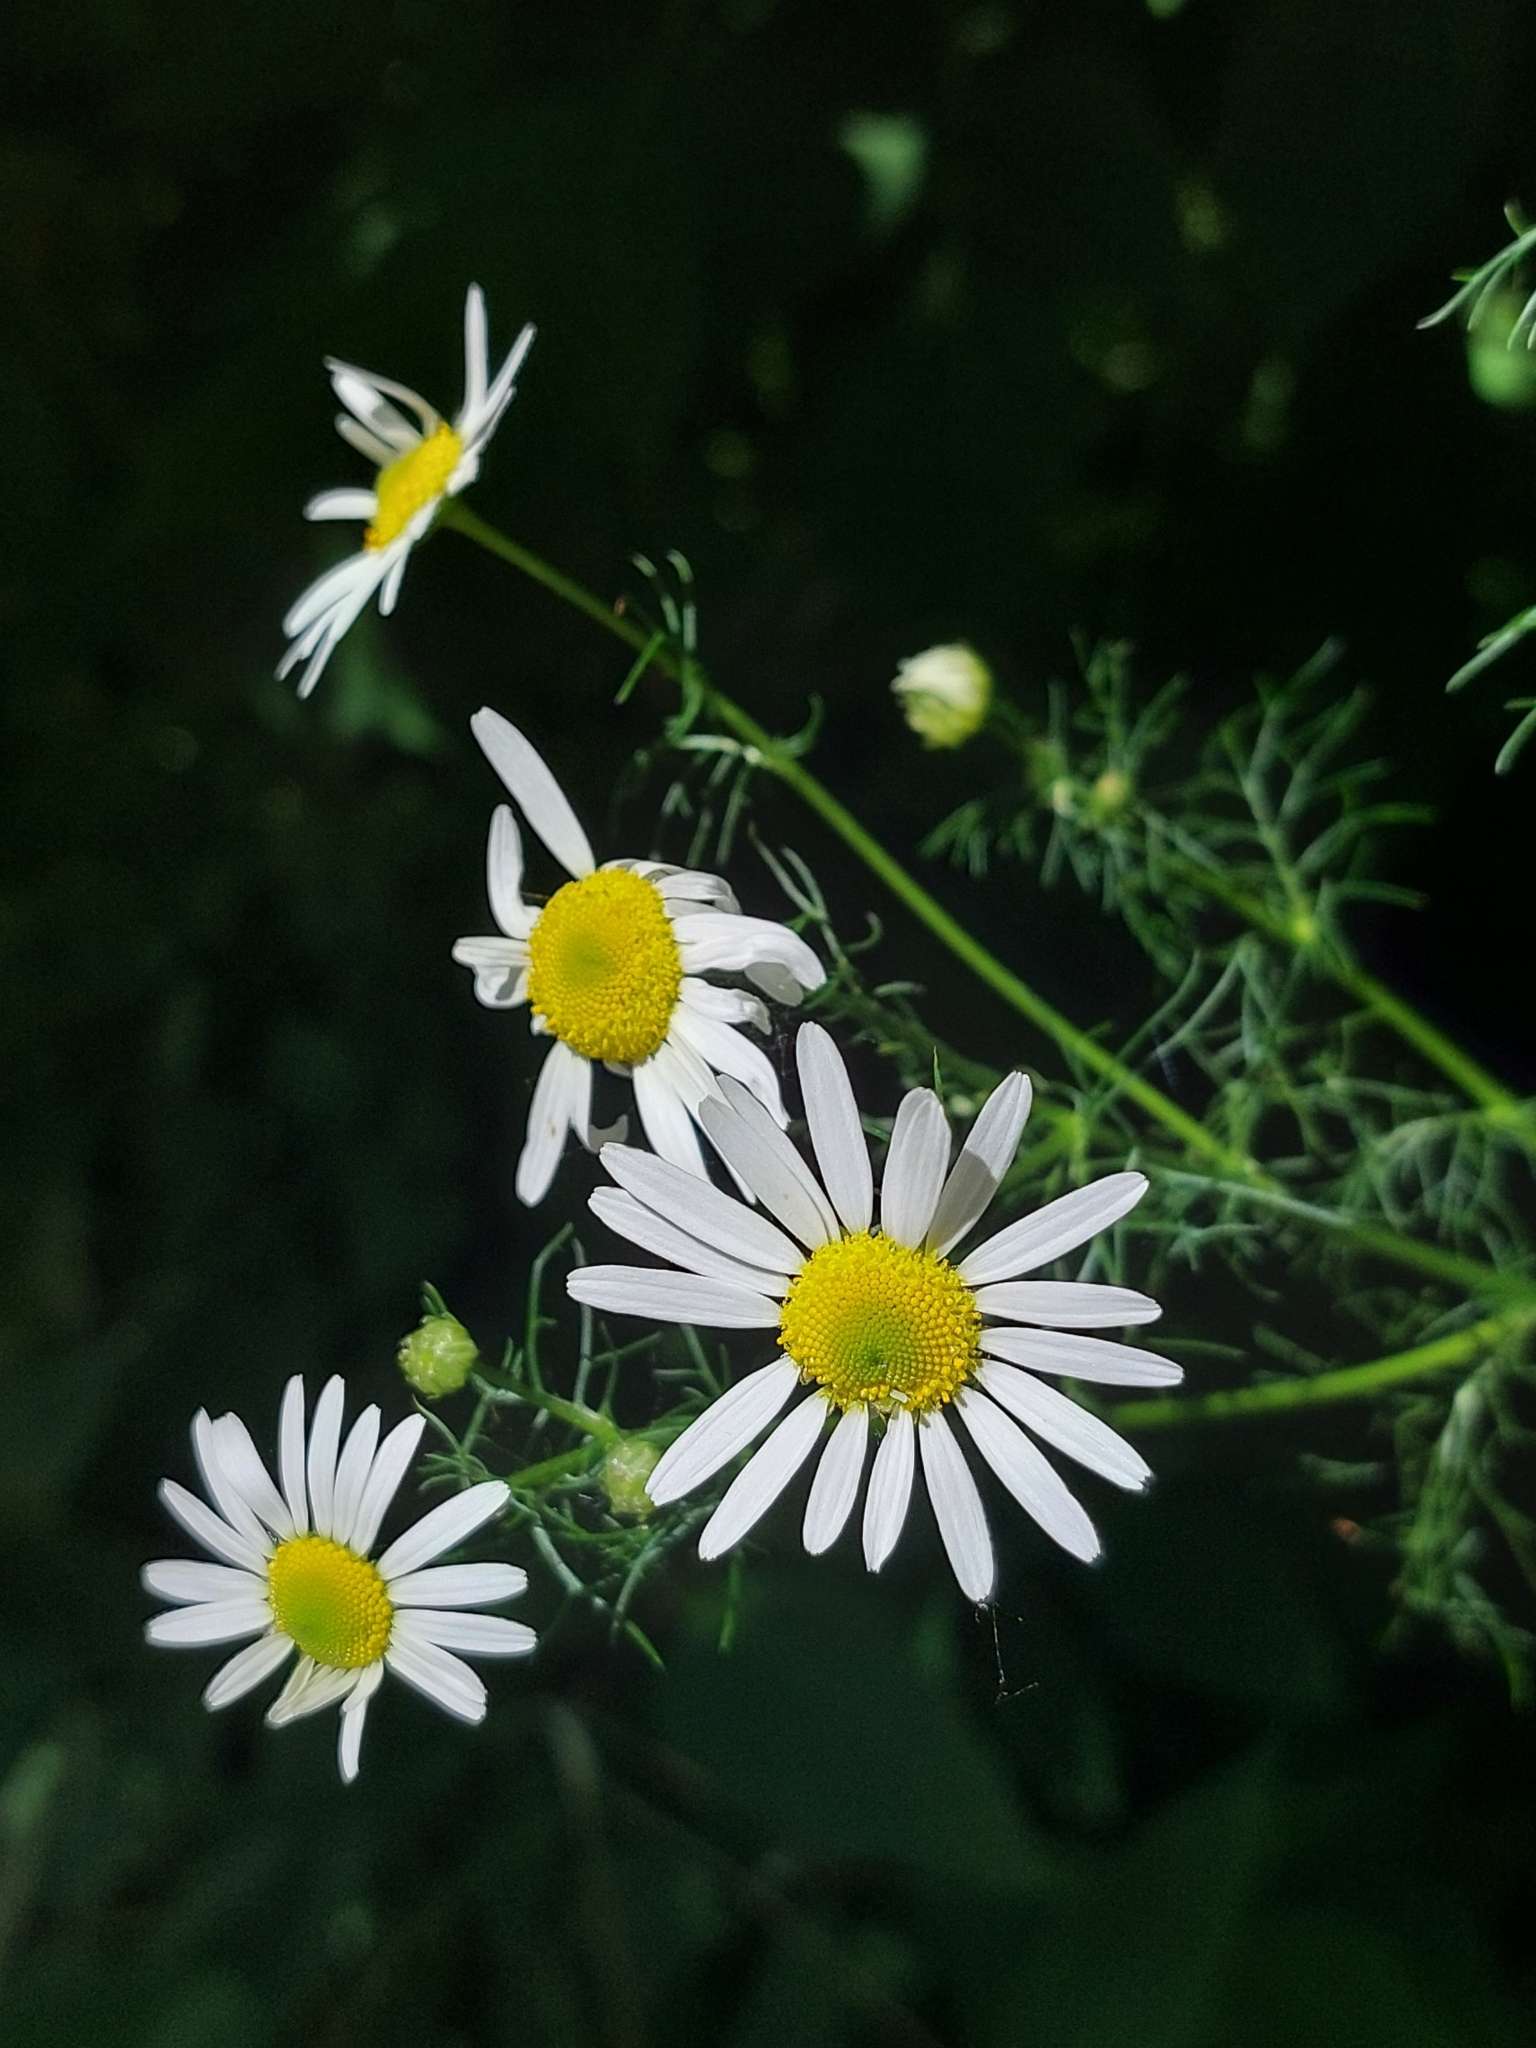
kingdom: Plantae
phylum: Tracheophyta
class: Magnoliopsida
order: Asterales
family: Asteraceae
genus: Tripleurospermum
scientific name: Tripleurospermum inodorum
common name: Scentless mayweed
